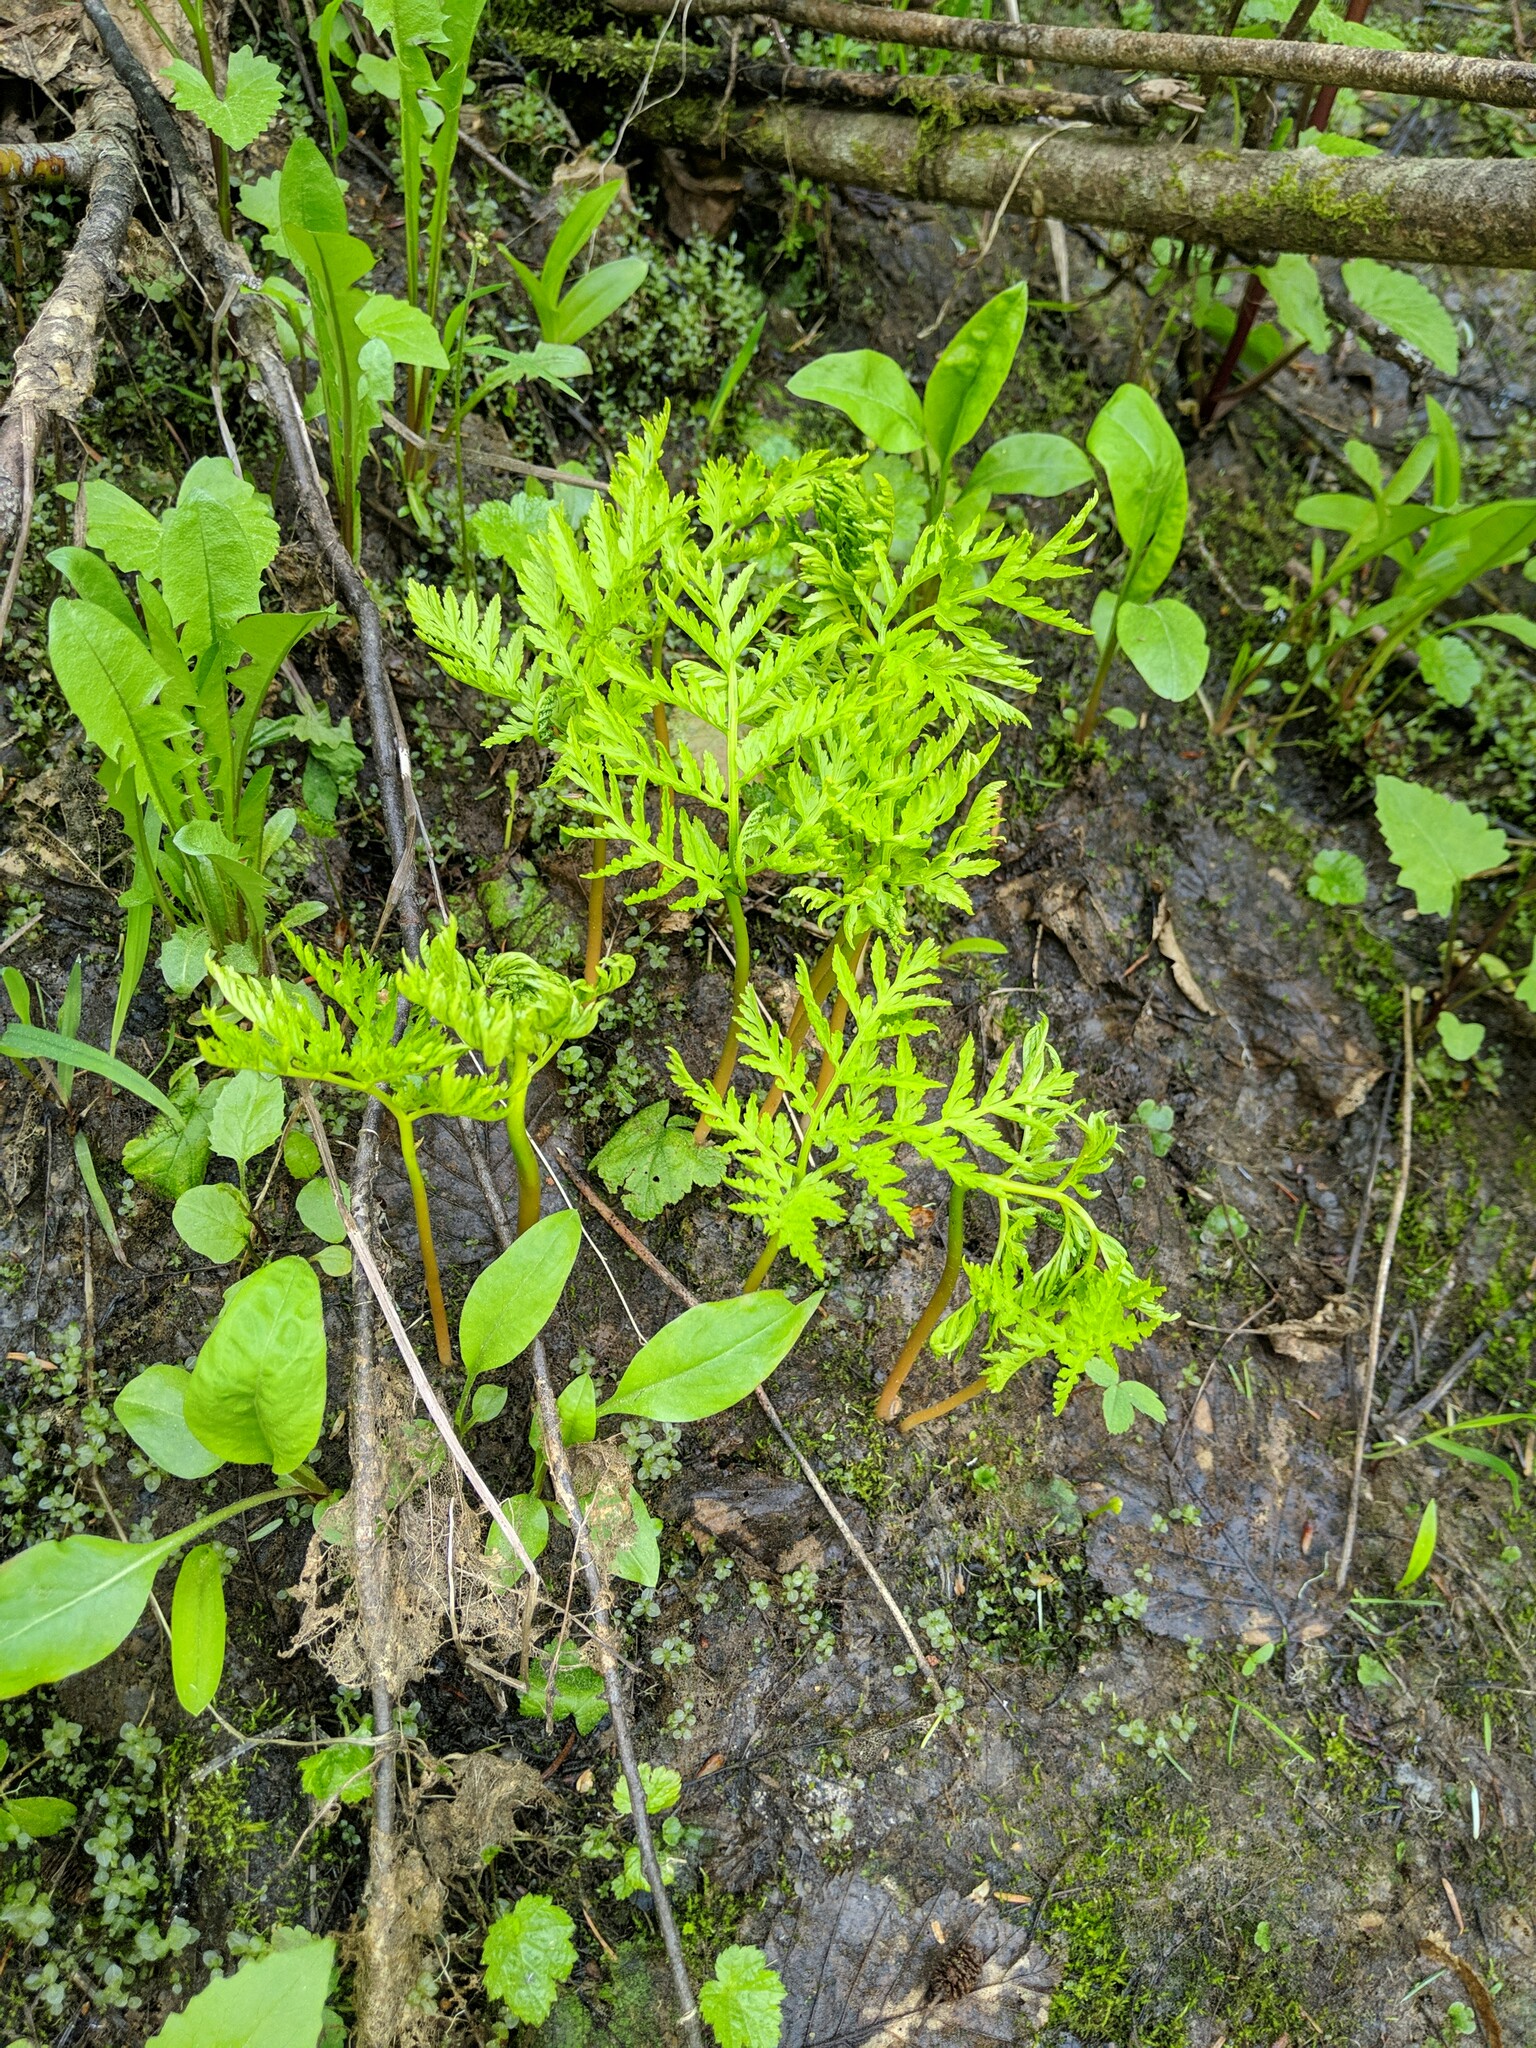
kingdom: Plantae
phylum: Tracheophyta
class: Polypodiopsida
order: Ophioglossales
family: Ophioglossaceae
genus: Botrypus
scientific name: Botrypus virginianus
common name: Common grapefern
